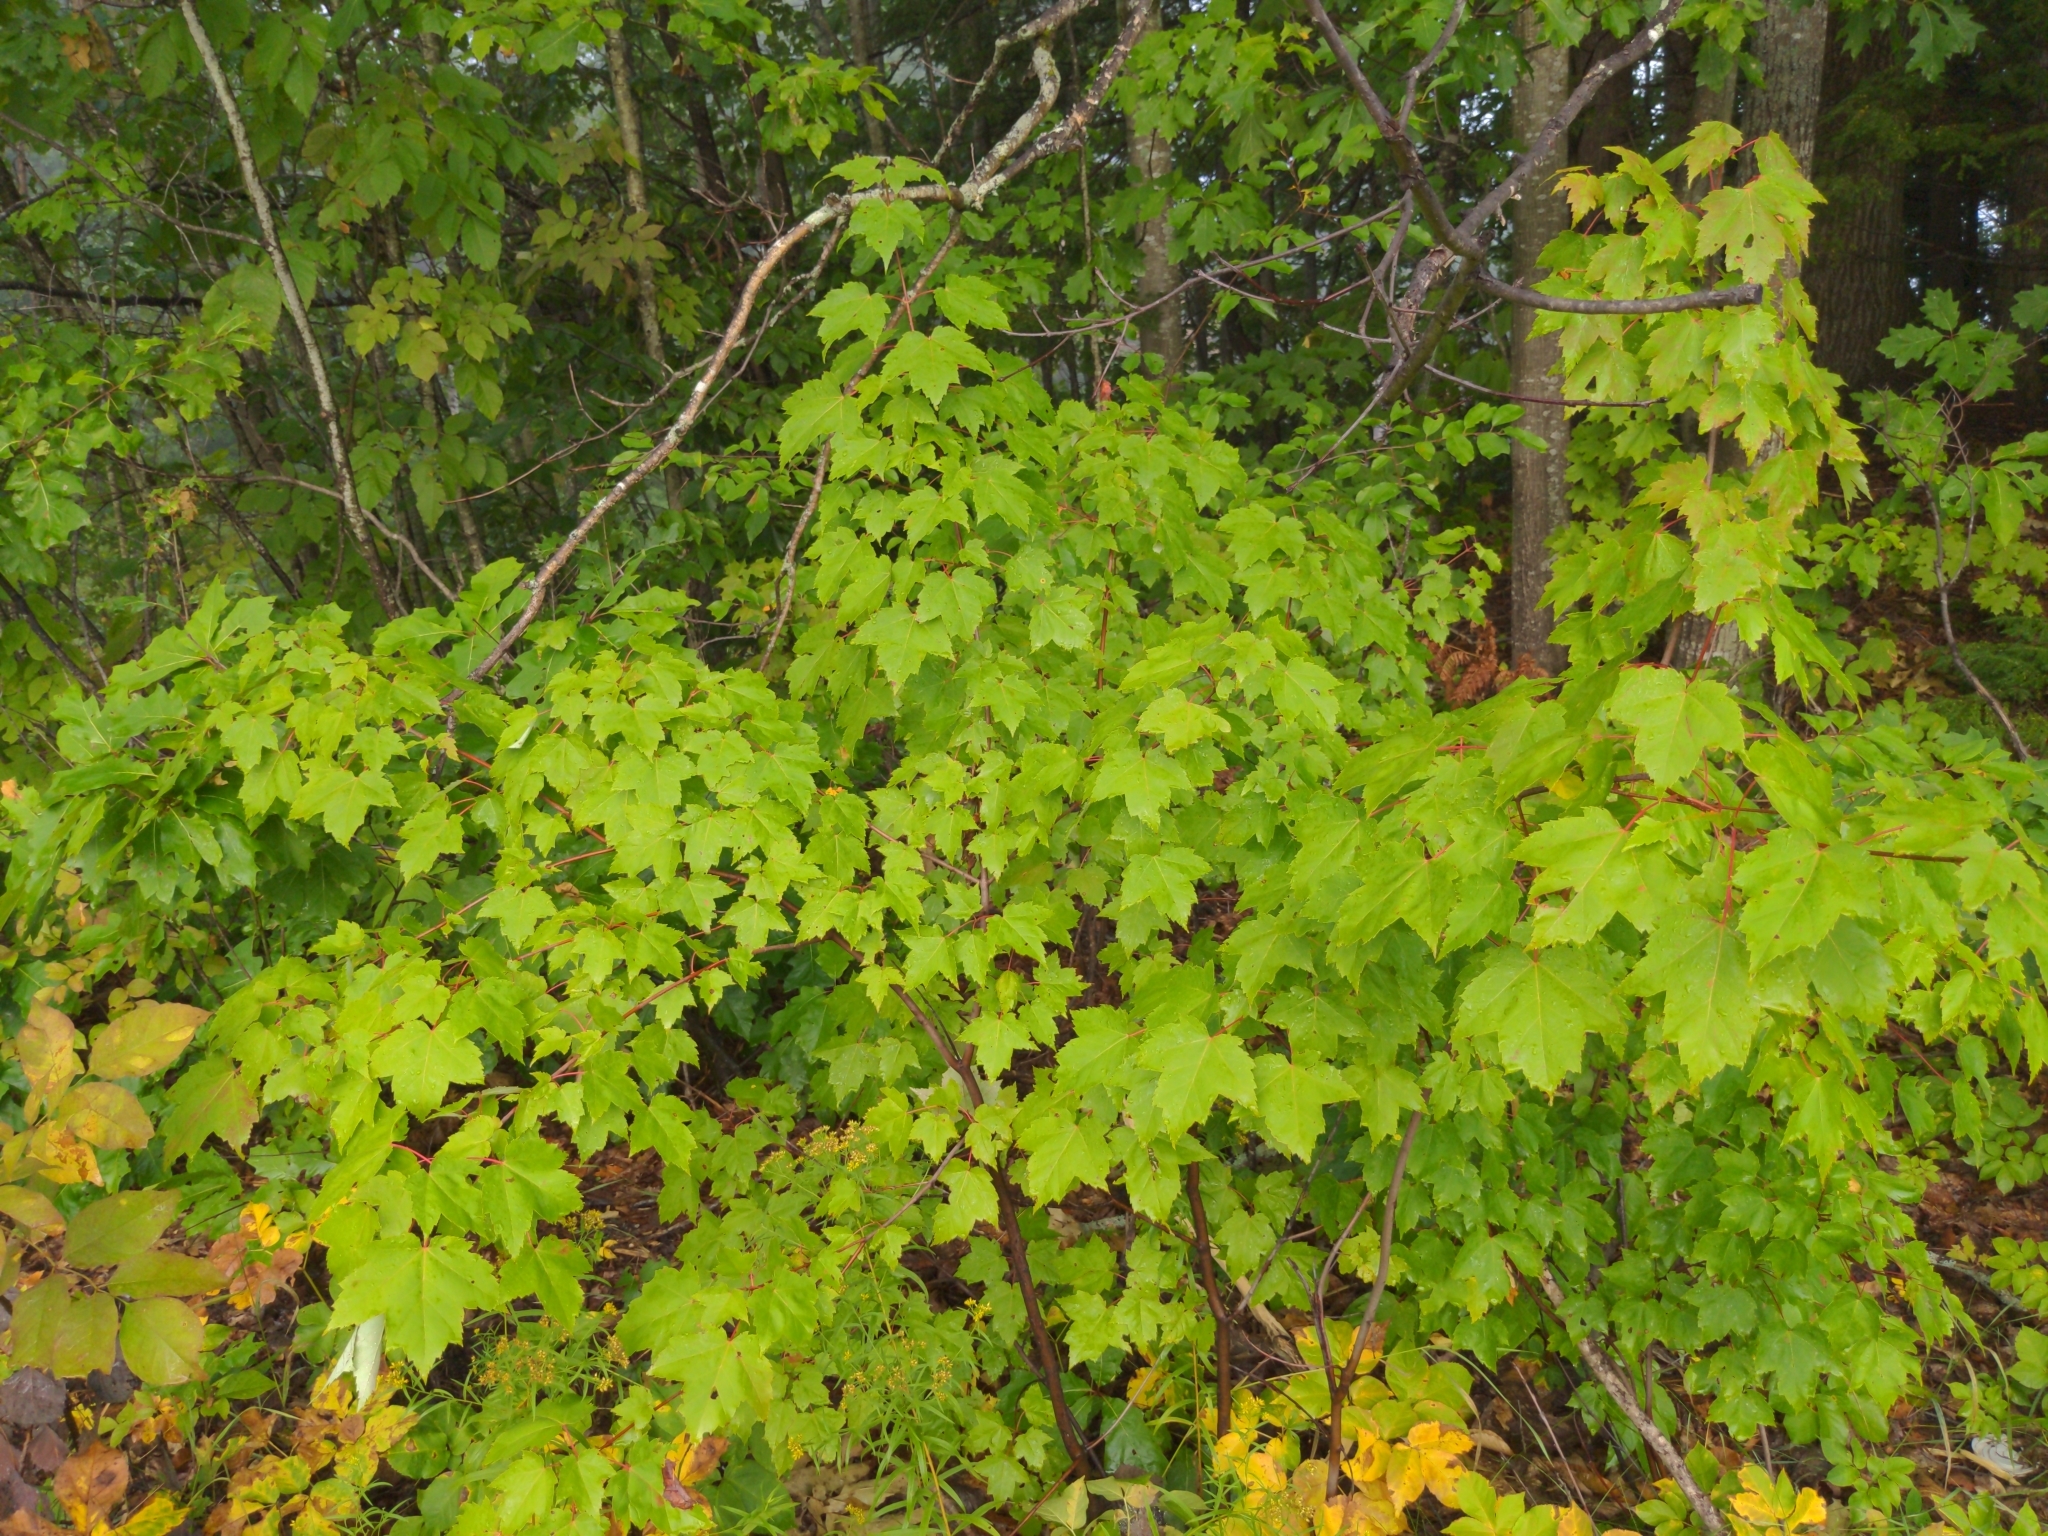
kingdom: Plantae
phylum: Tracheophyta
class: Magnoliopsida
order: Sapindales
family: Sapindaceae
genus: Acer
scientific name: Acer rubrum
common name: Red maple
